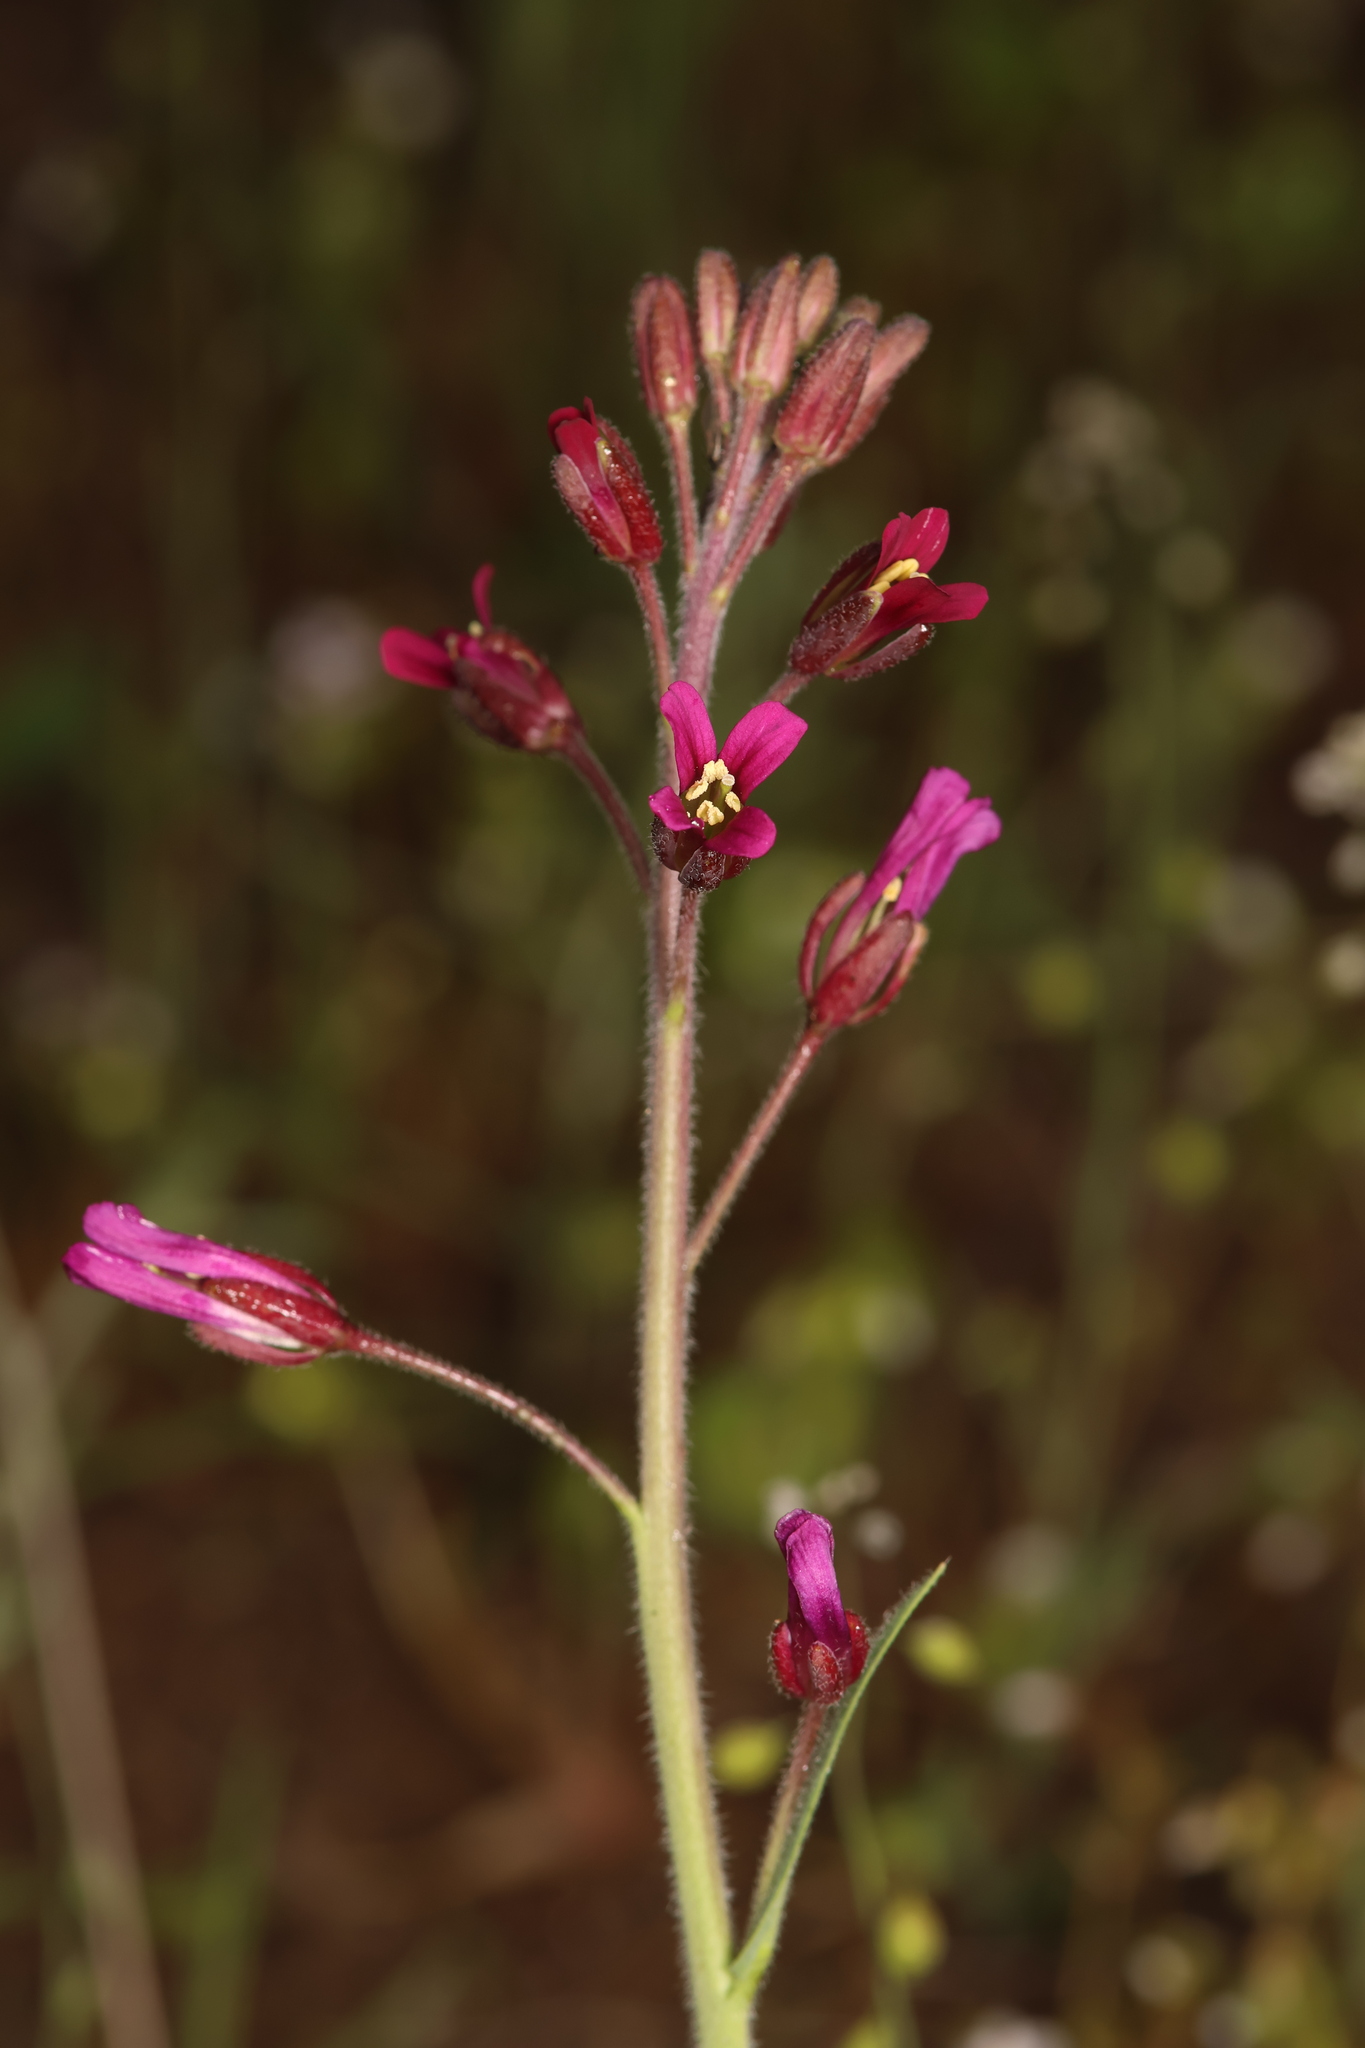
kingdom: Plantae
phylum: Tracheophyta
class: Magnoliopsida
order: Brassicales
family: Brassicaceae
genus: Boechera
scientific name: Boechera arcuata
